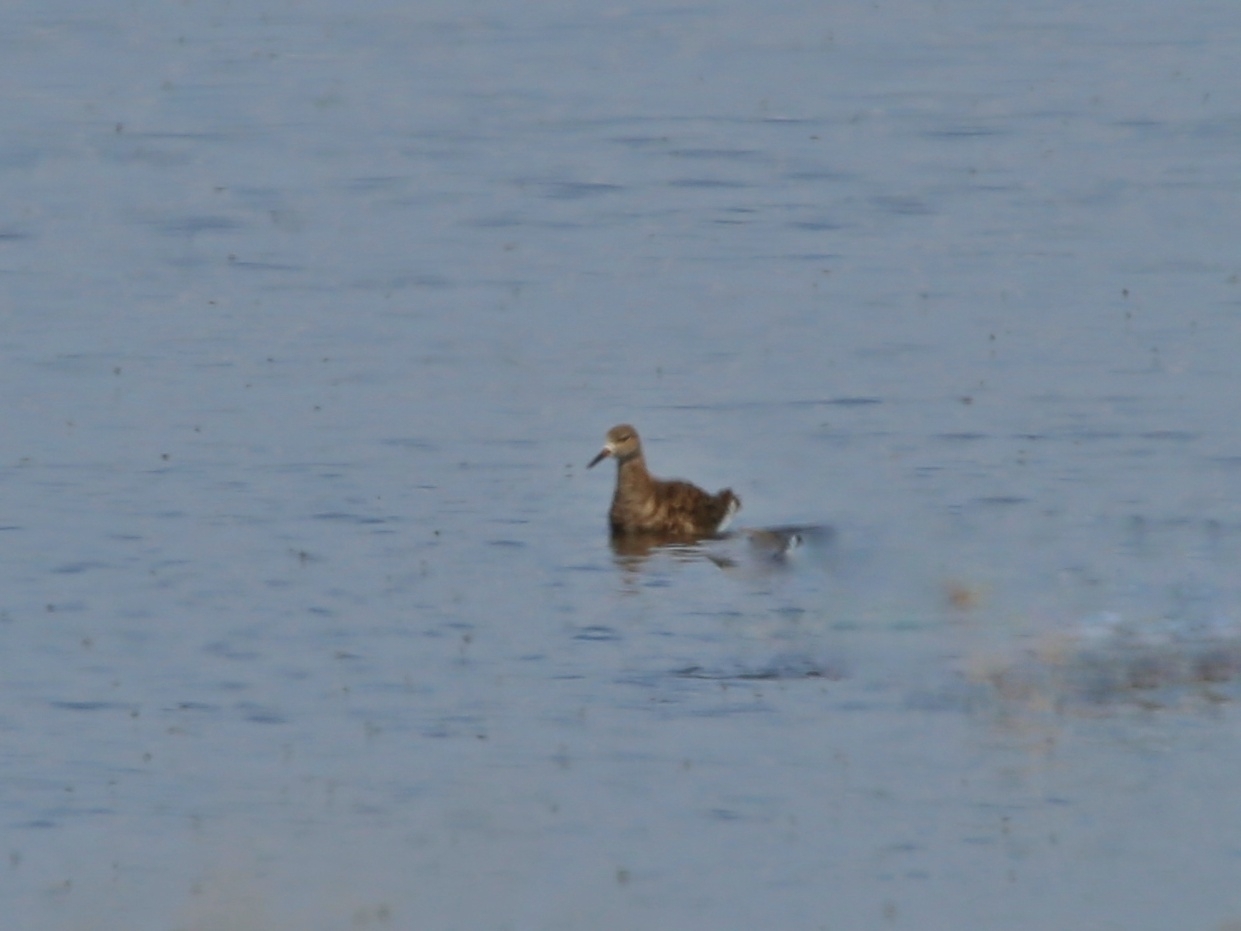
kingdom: Animalia
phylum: Chordata
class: Aves
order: Charadriiformes
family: Scolopacidae
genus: Calidris
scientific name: Calidris pugnax
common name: Ruff
